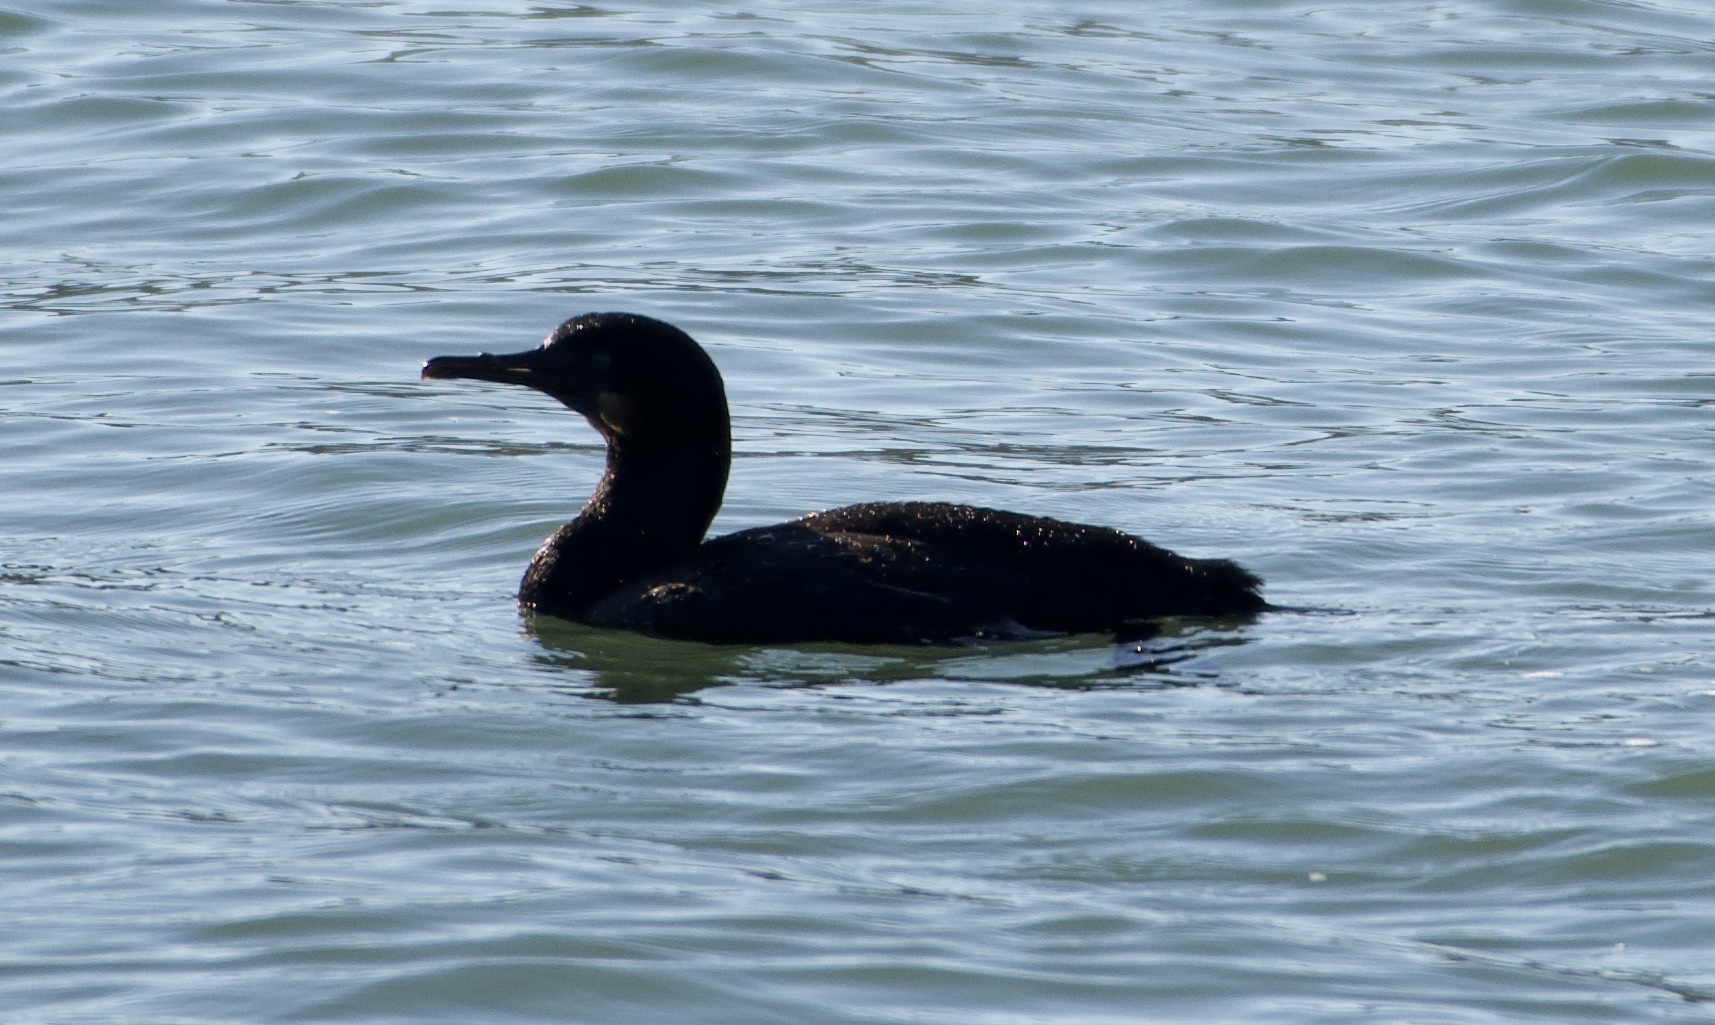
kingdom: Animalia
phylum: Chordata
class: Aves
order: Suliformes
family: Phalacrocoracidae
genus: Urile
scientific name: Urile penicillatus
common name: Brandt's cormorant
